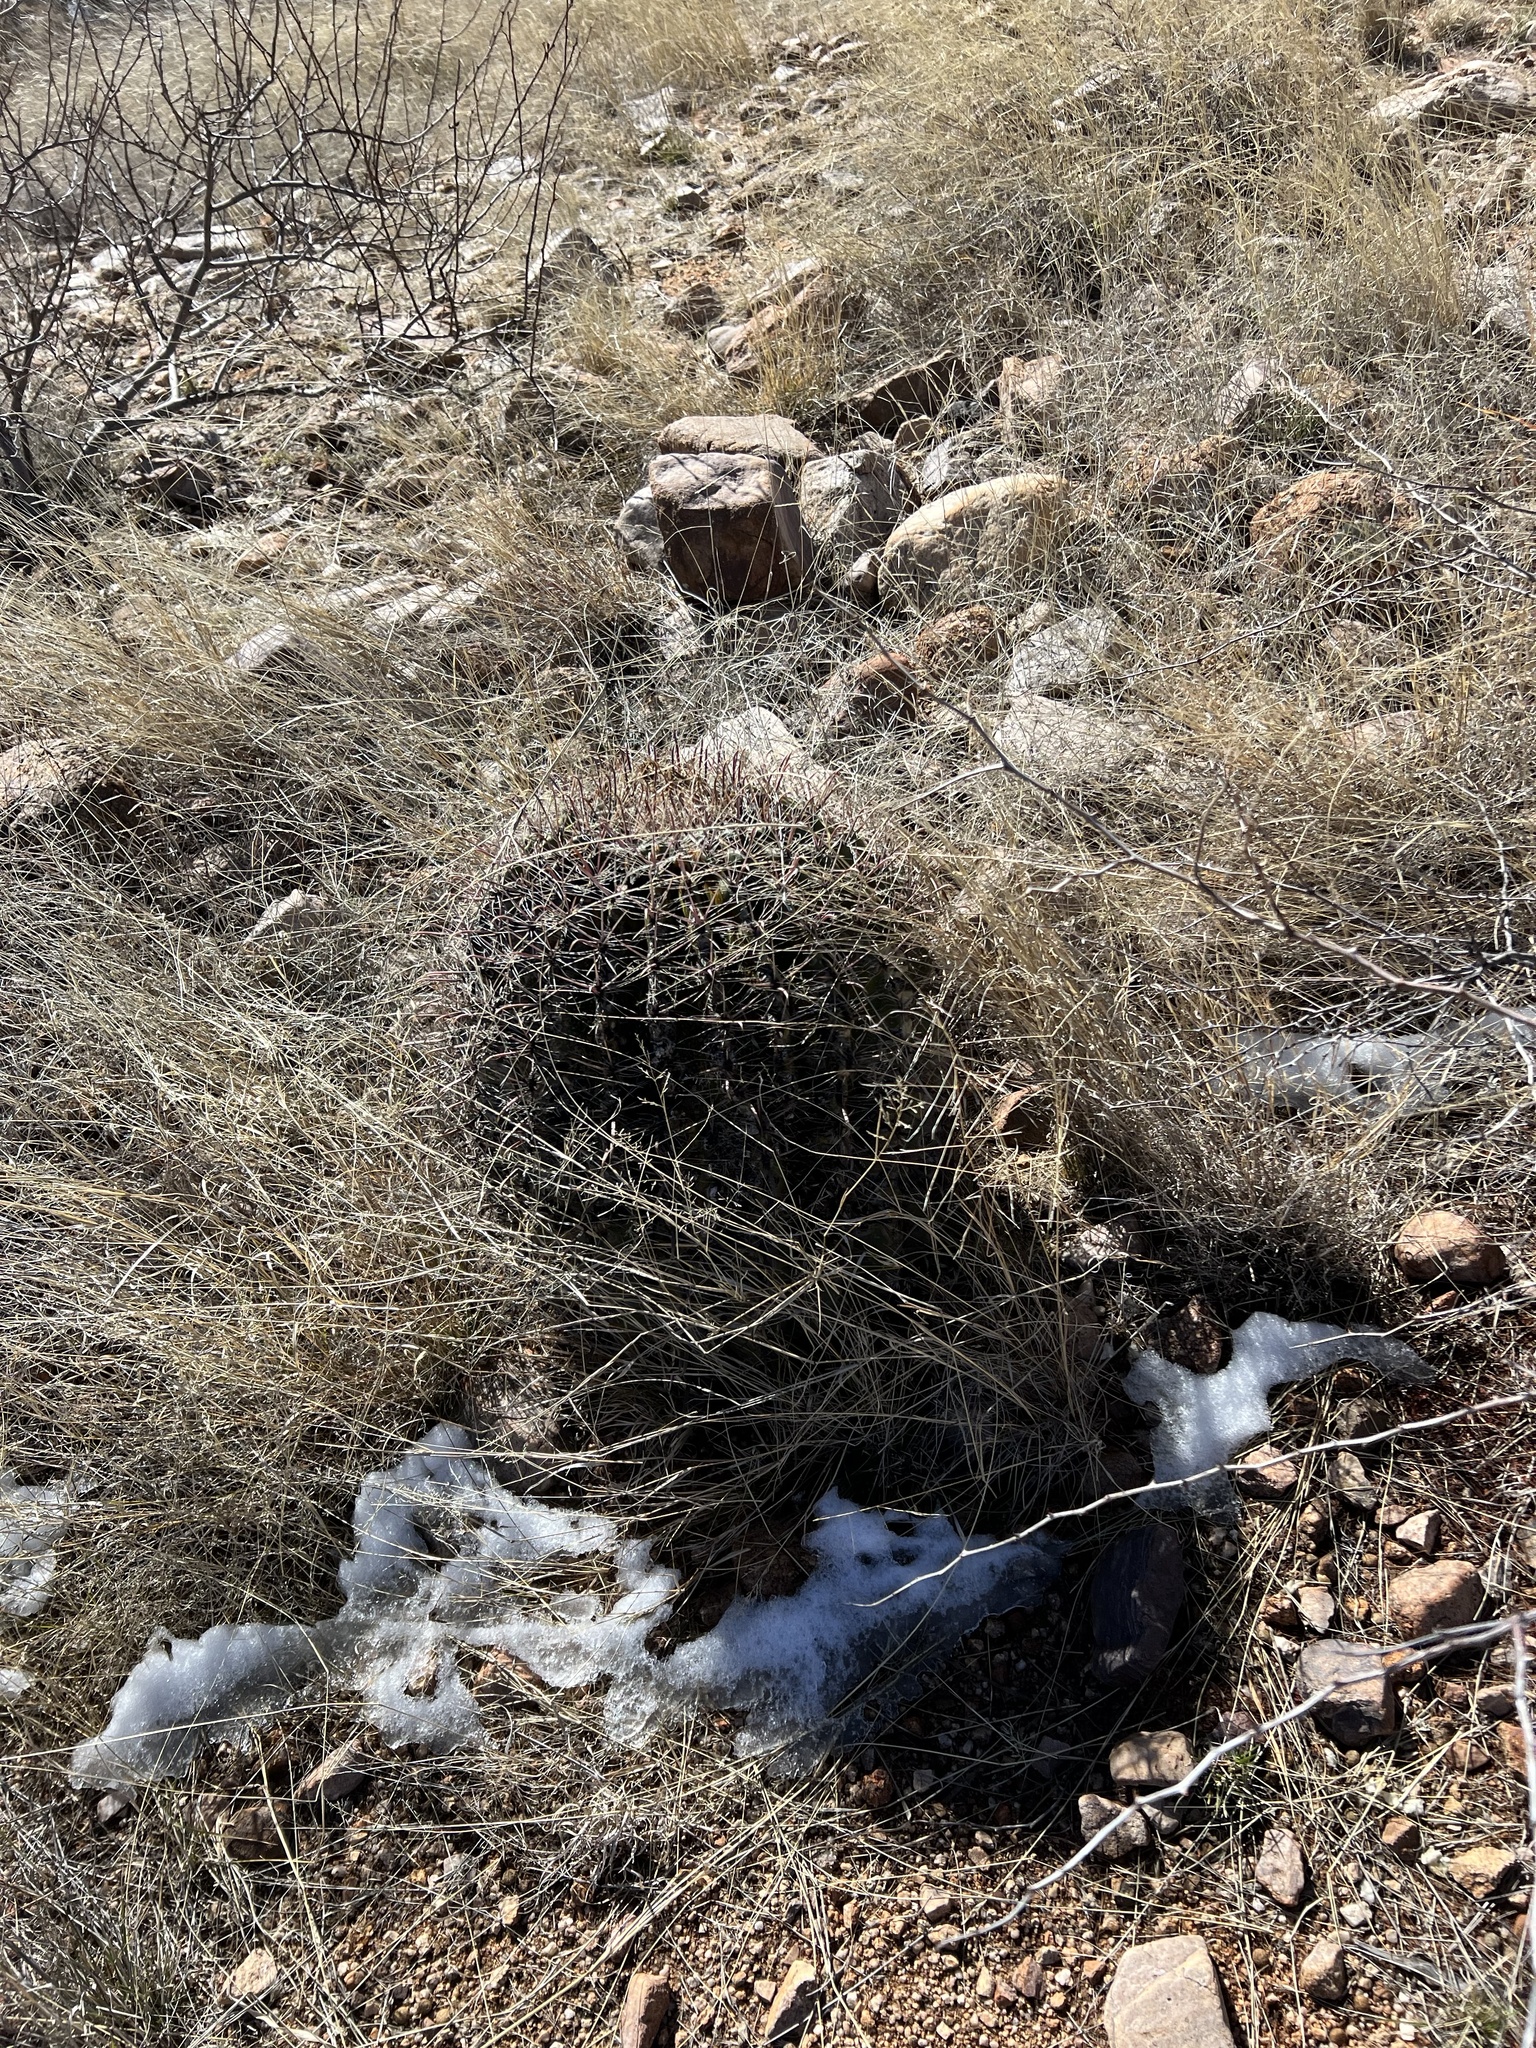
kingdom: Plantae
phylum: Tracheophyta
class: Magnoliopsida
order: Caryophyllales
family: Cactaceae
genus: Ferocactus
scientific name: Ferocactus wislizeni
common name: Candy barrel cactus
